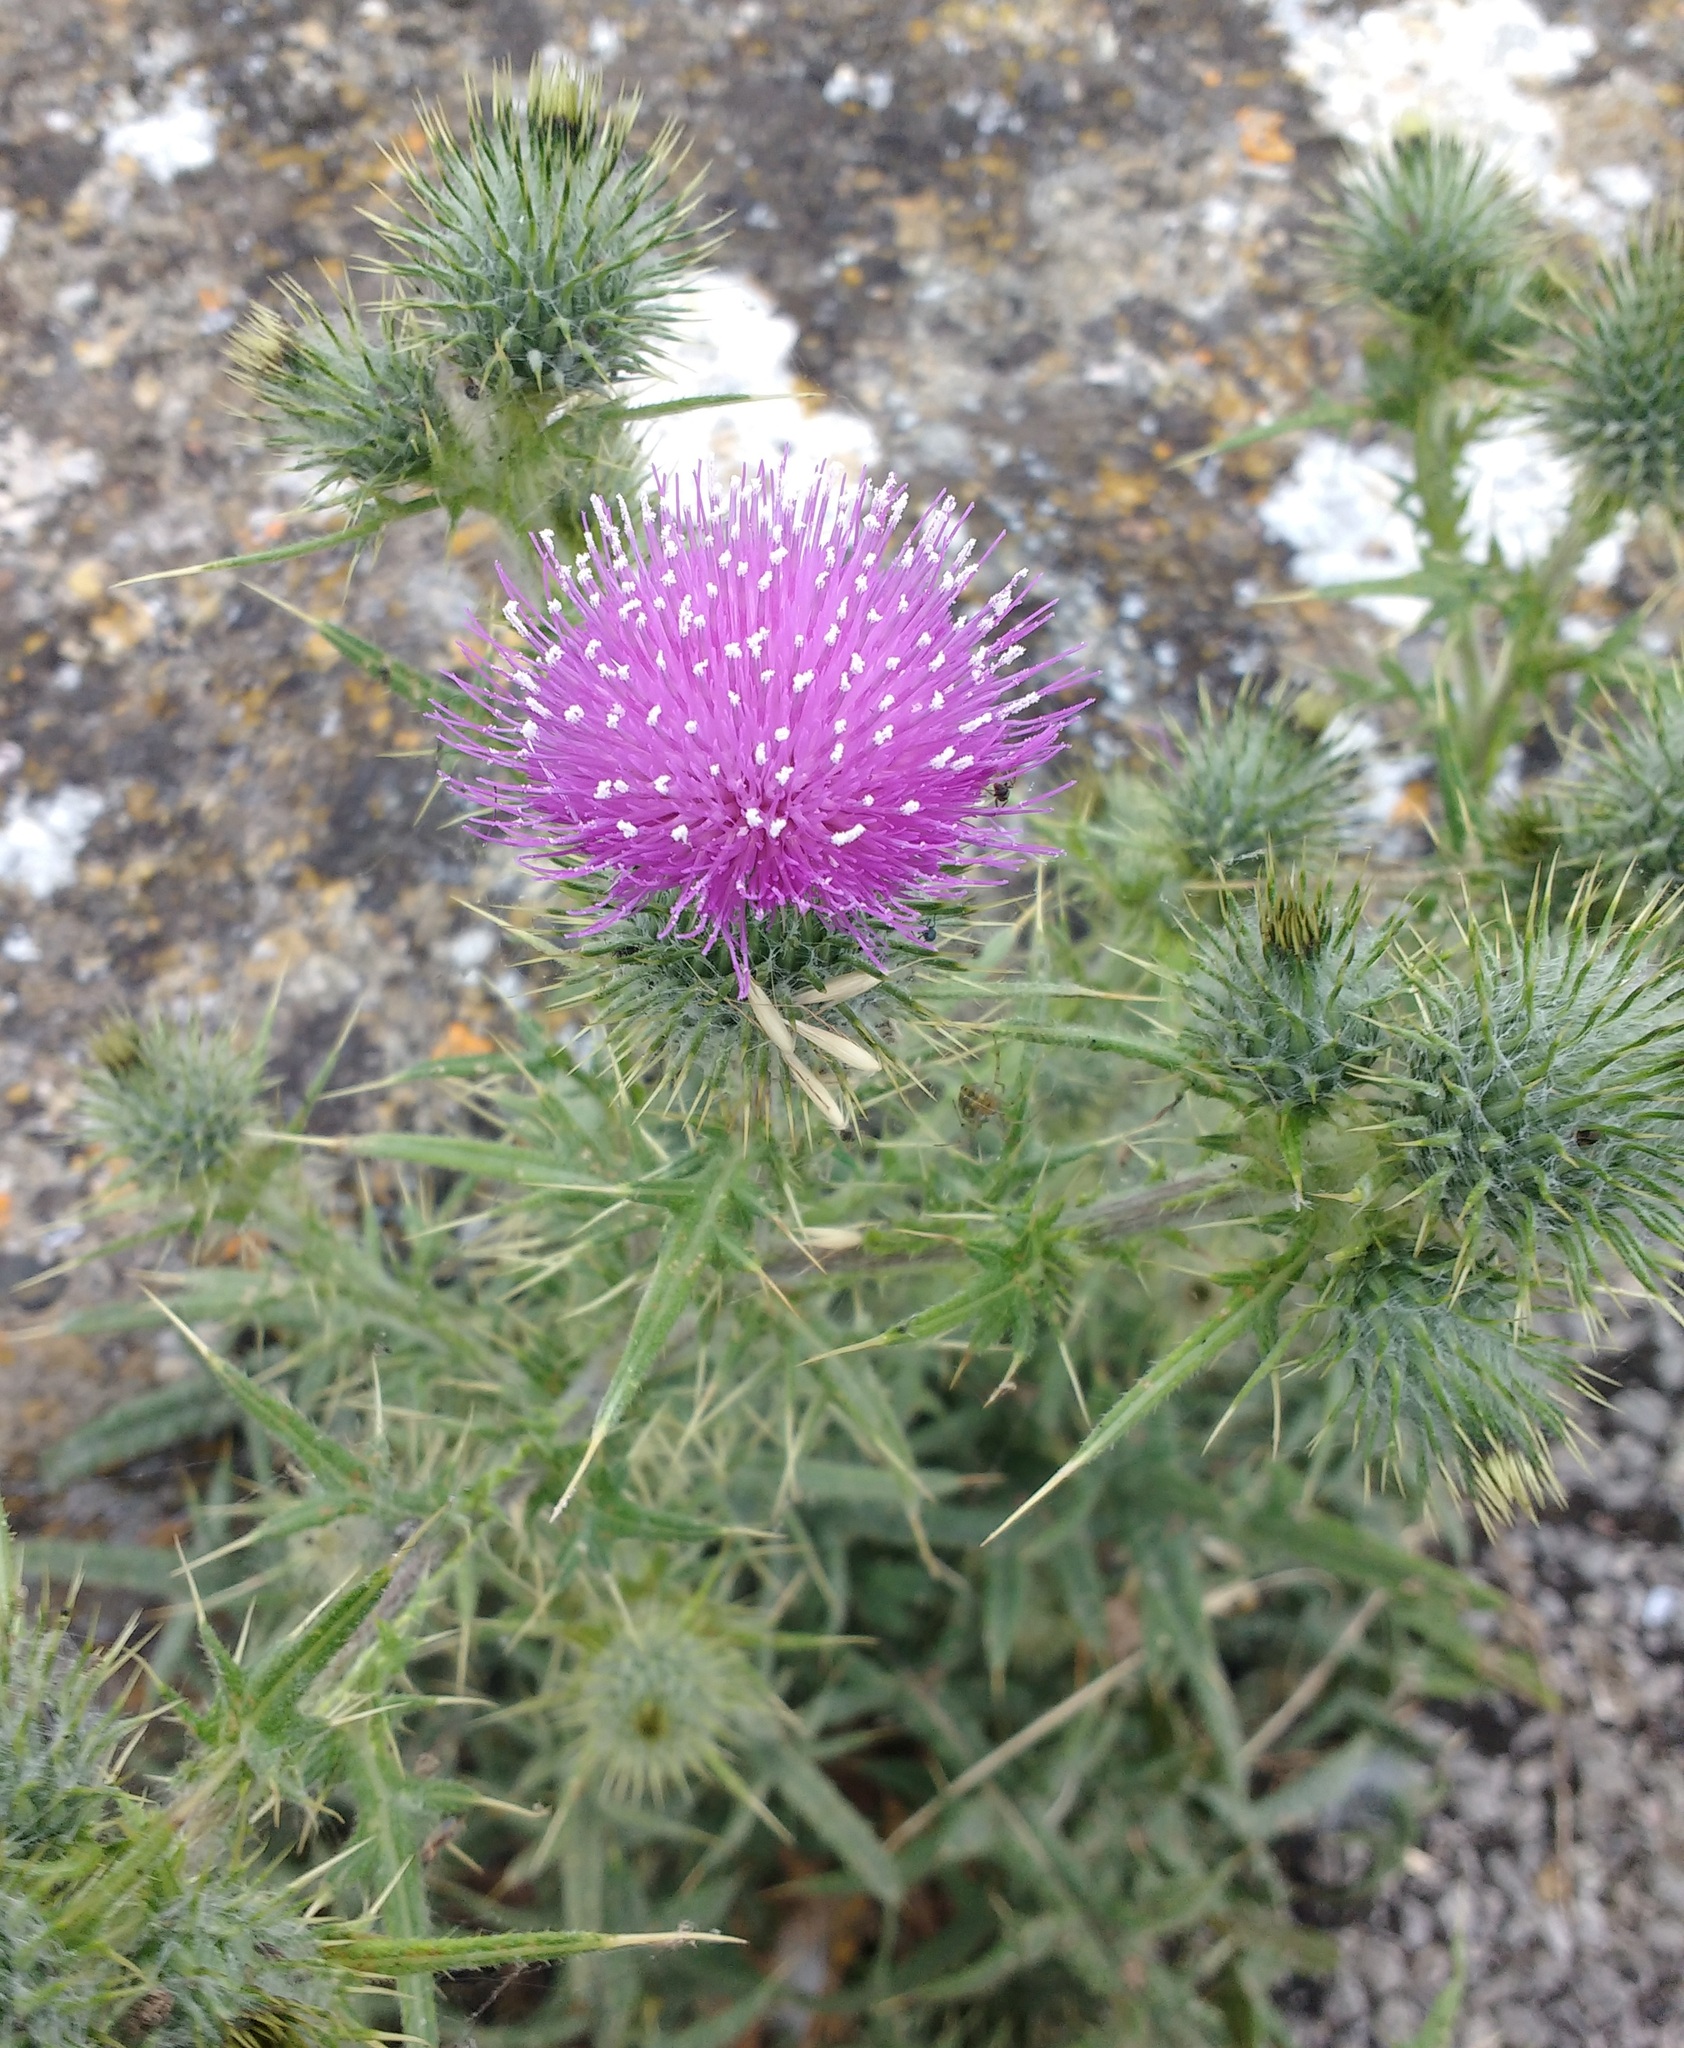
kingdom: Plantae
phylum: Tracheophyta
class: Magnoliopsida
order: Asterales
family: Asteraceae
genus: Cirsium
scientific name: Cirsium vulgare
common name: Bull thistle
